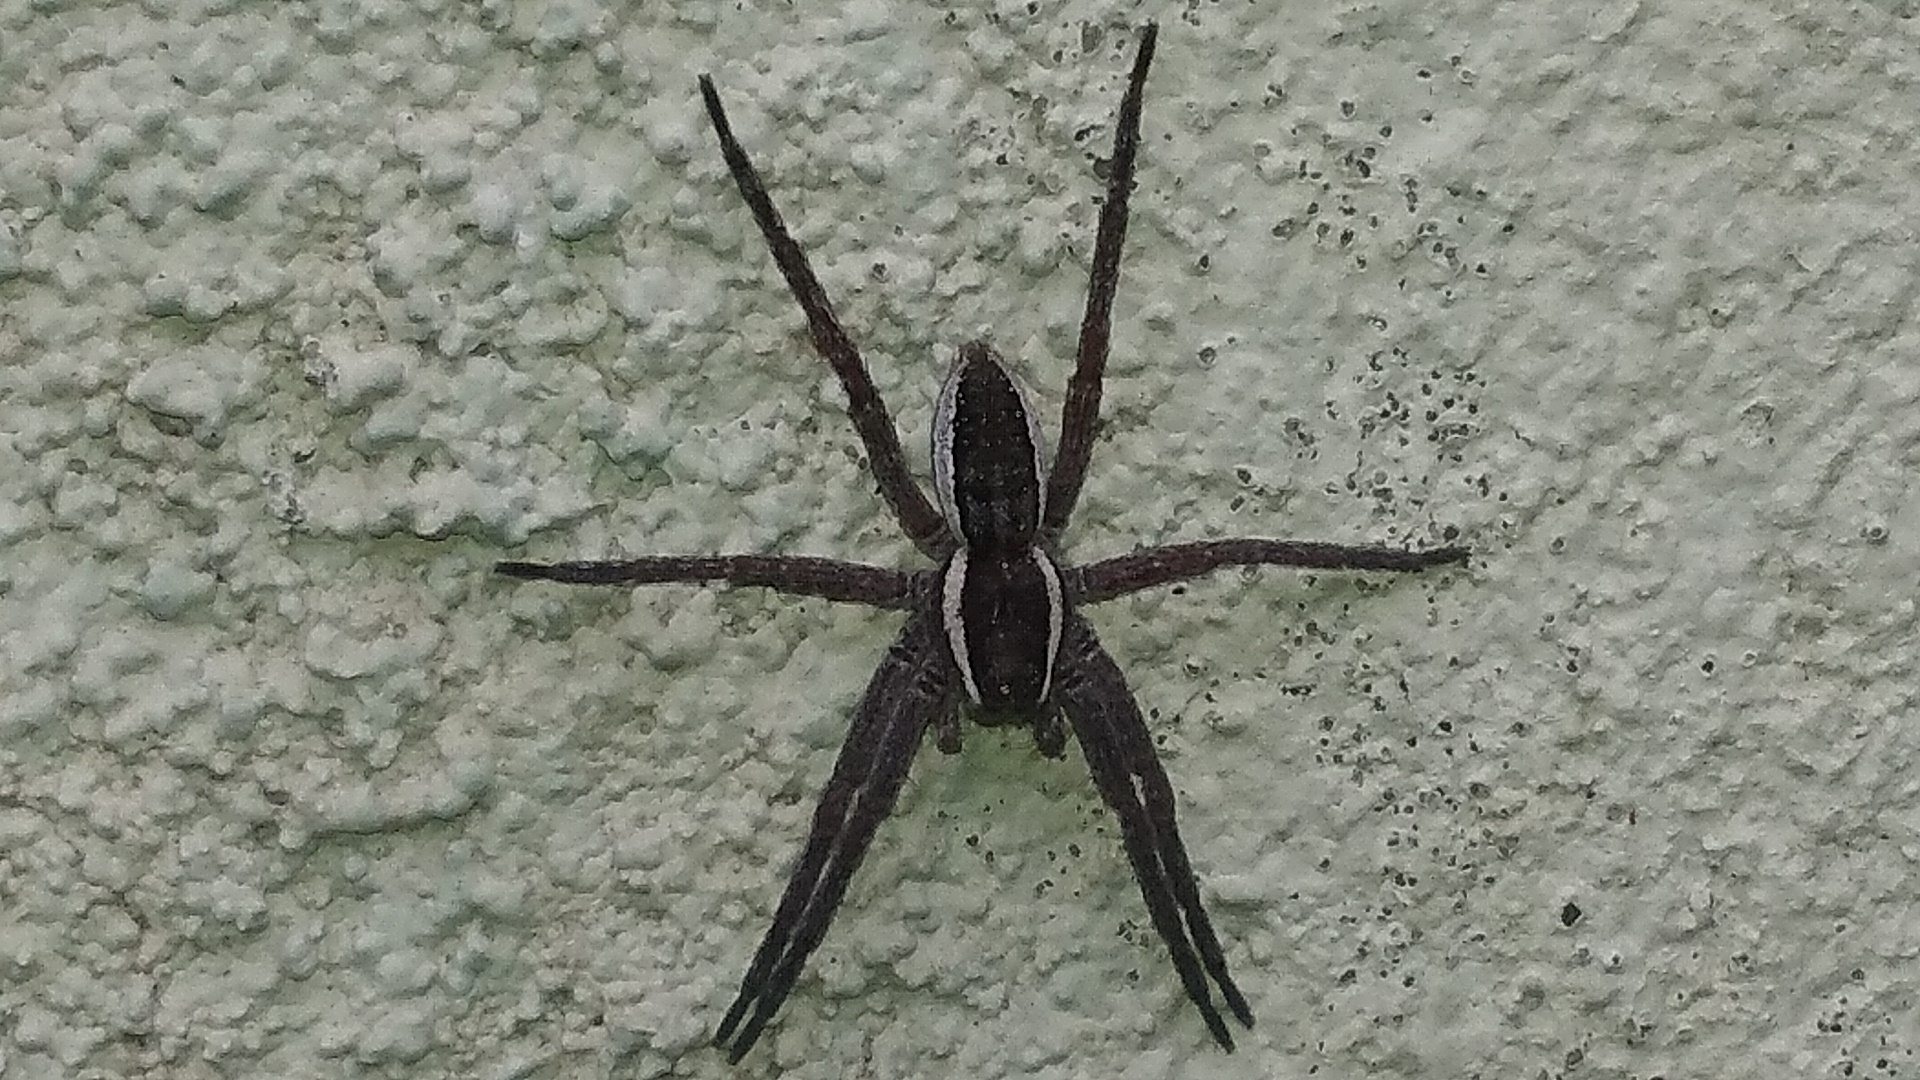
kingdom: Animalia
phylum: Arthropoda
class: Arachnida
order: Araneae
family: Pisauridae
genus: Dolomedes
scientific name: Dolomedes fimbriatus
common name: Raft spider
